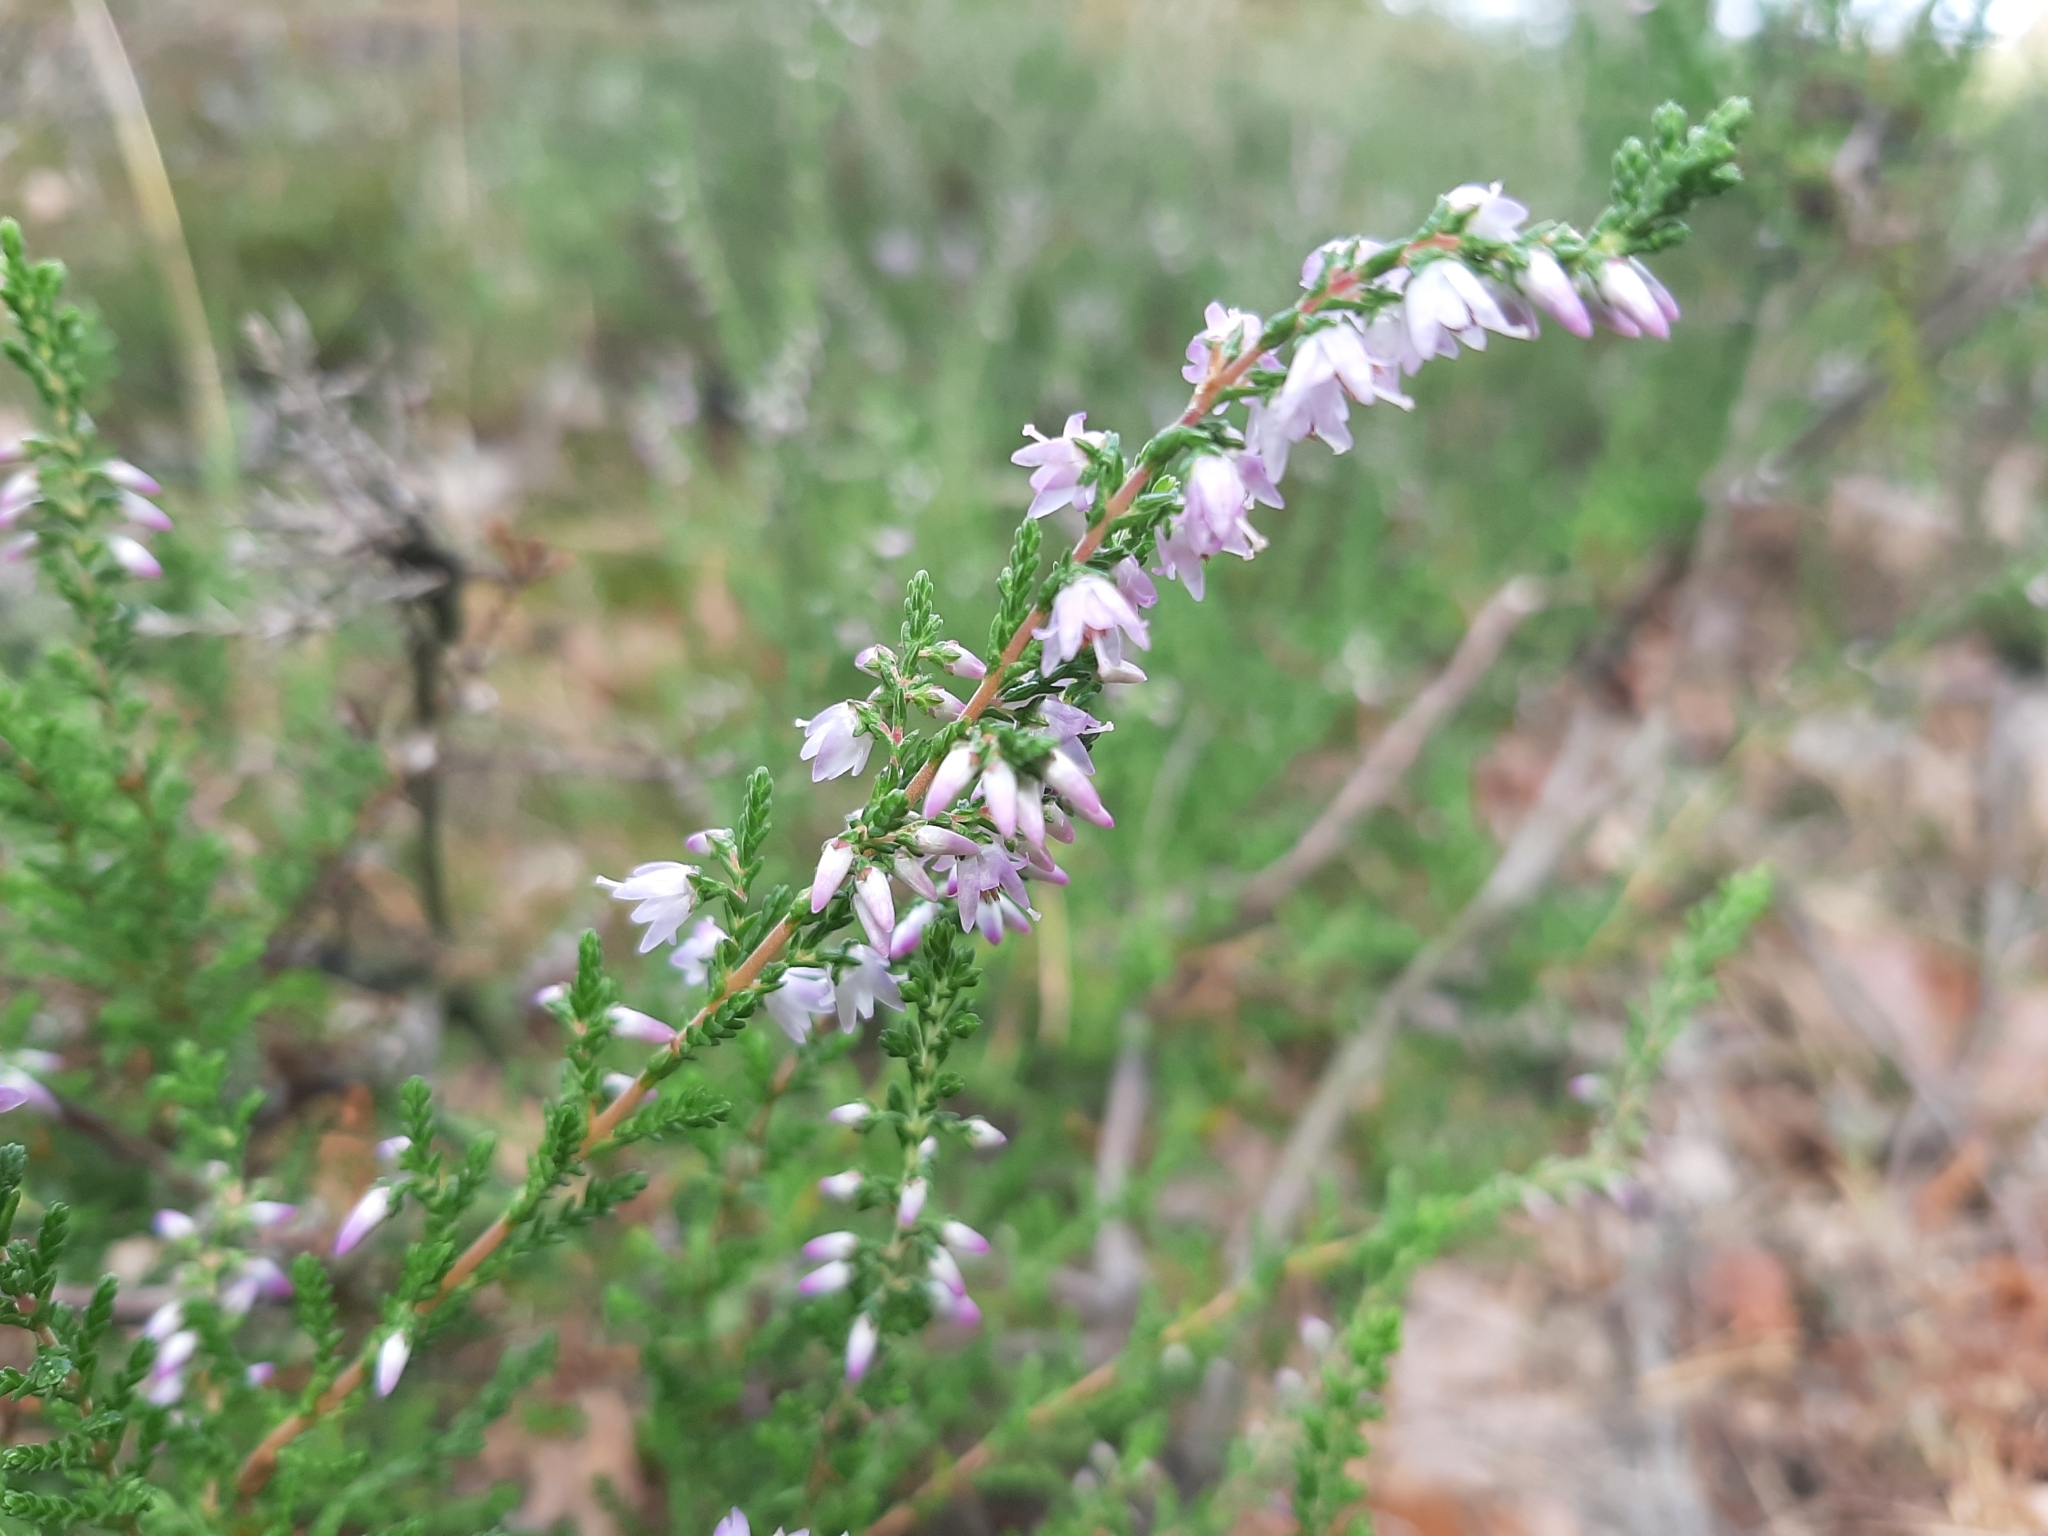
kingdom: Plantae
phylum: Tracheophyta
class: Magnoliopsida
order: Ericales
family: Ericaceae
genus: Calluna
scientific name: Calluna vulgaris
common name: Heather
